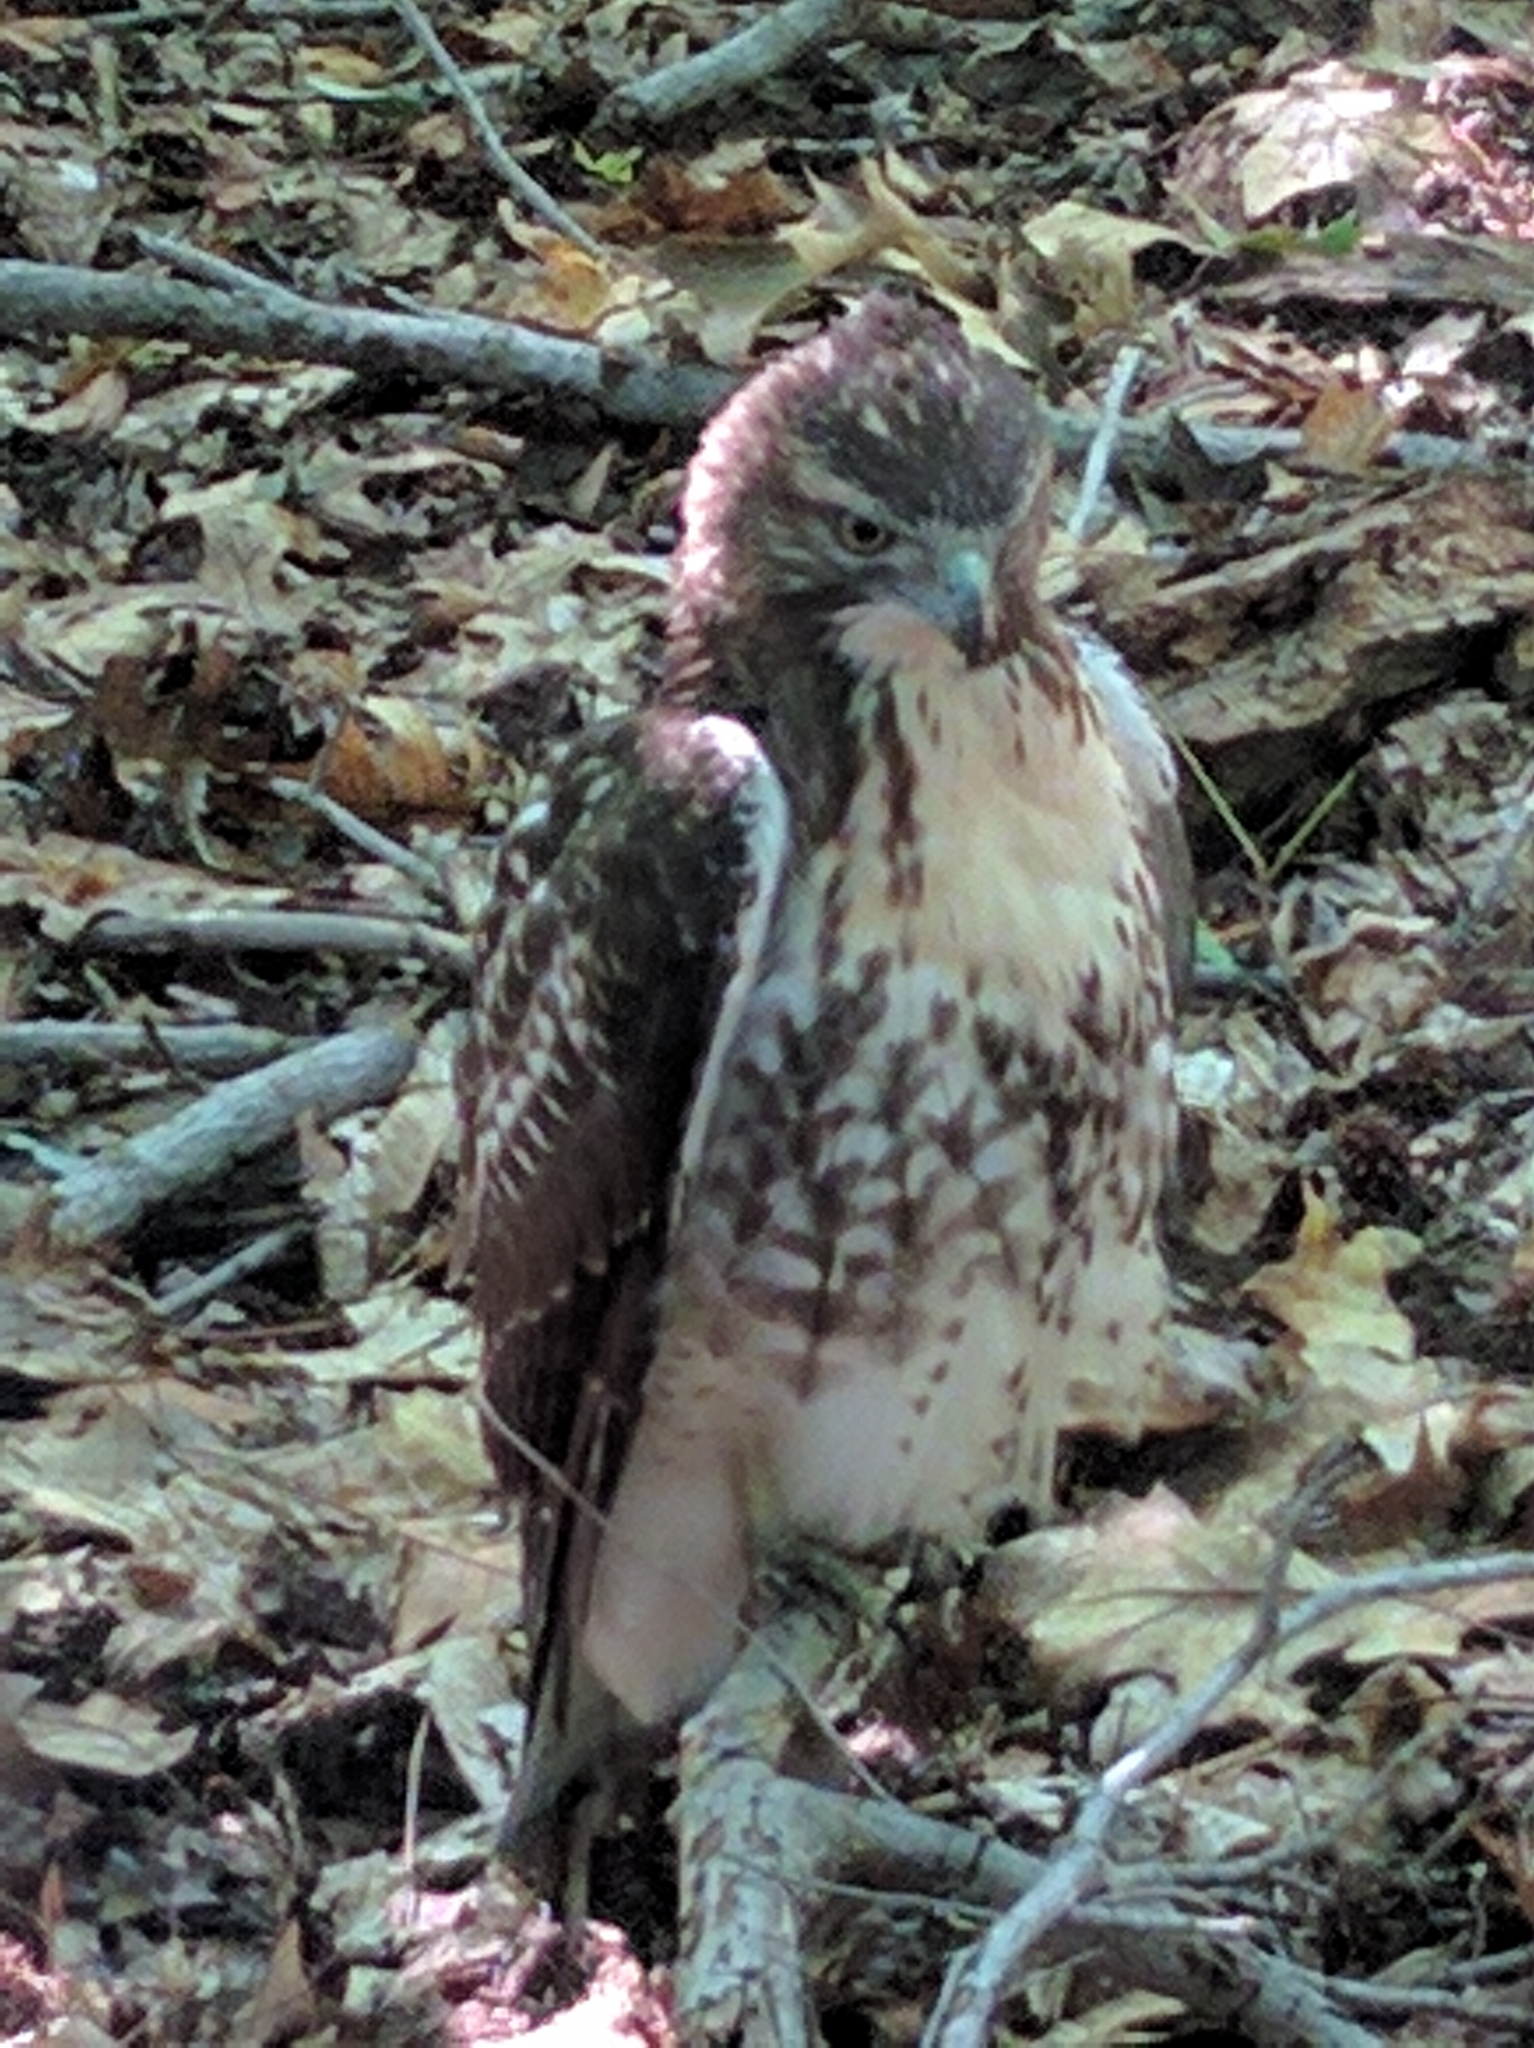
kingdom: Animalia
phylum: Chordata
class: Aves
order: Accipitriformes
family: Accipitridae
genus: Buteo
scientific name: Buteo jamaicensis
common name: Red-tailed hawk
